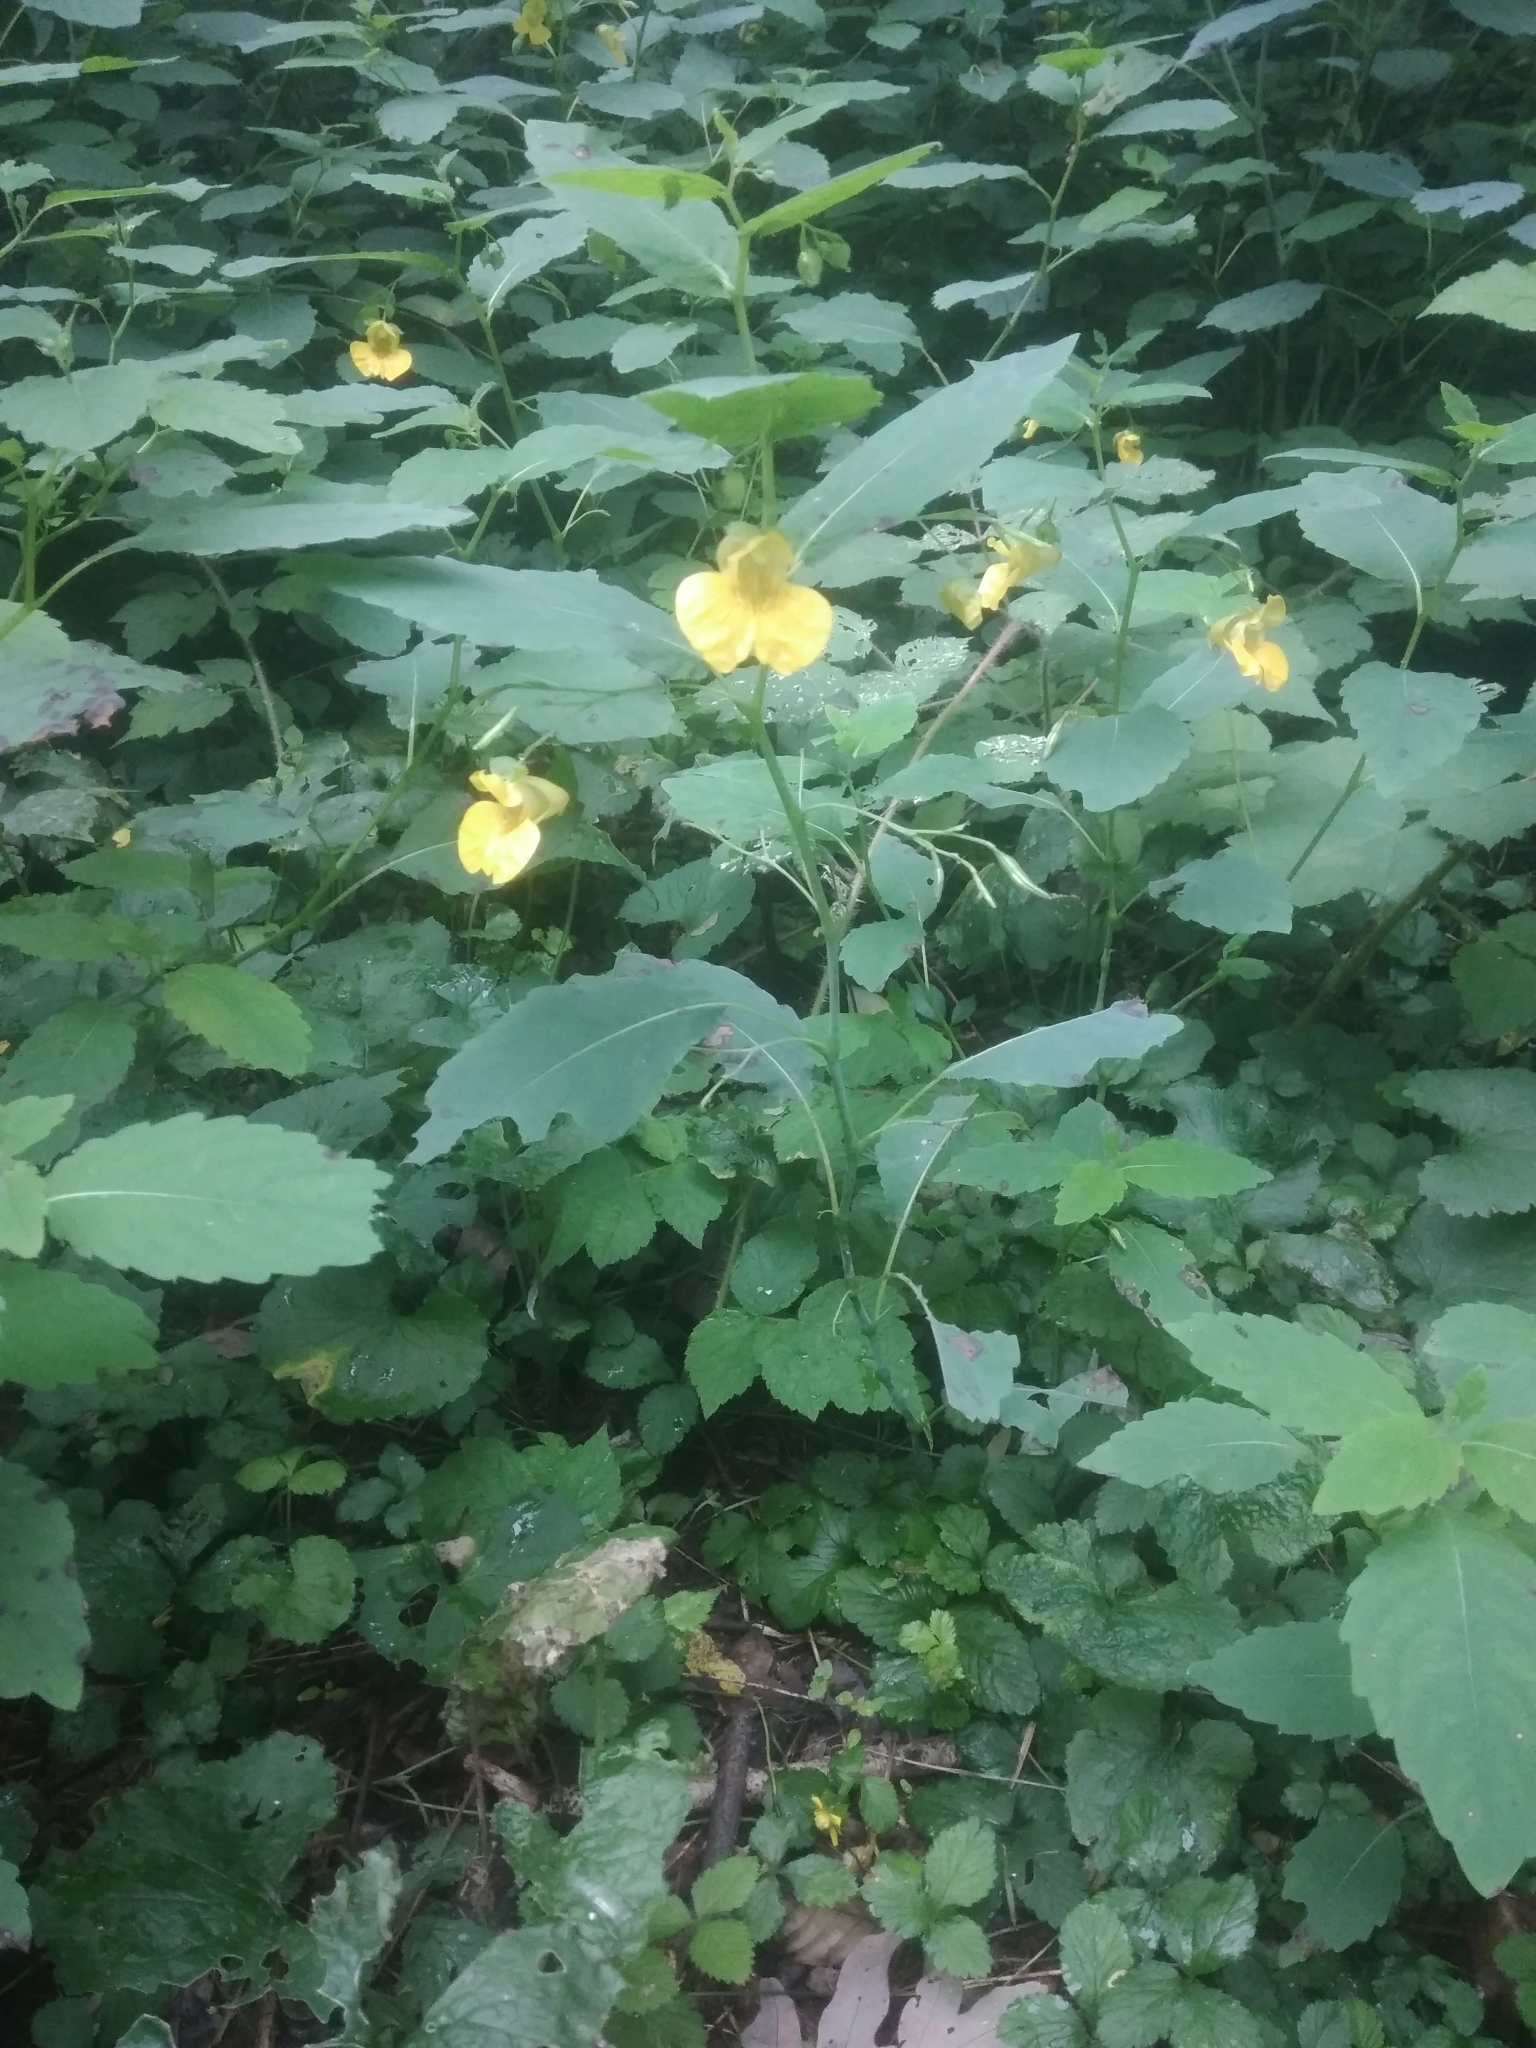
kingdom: Plantae
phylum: Tracheophyta
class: Magnoliopsida
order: Ericales
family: Balsaminaceae
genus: Impatiens
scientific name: Impatiens pallida
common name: Pale snapweed
